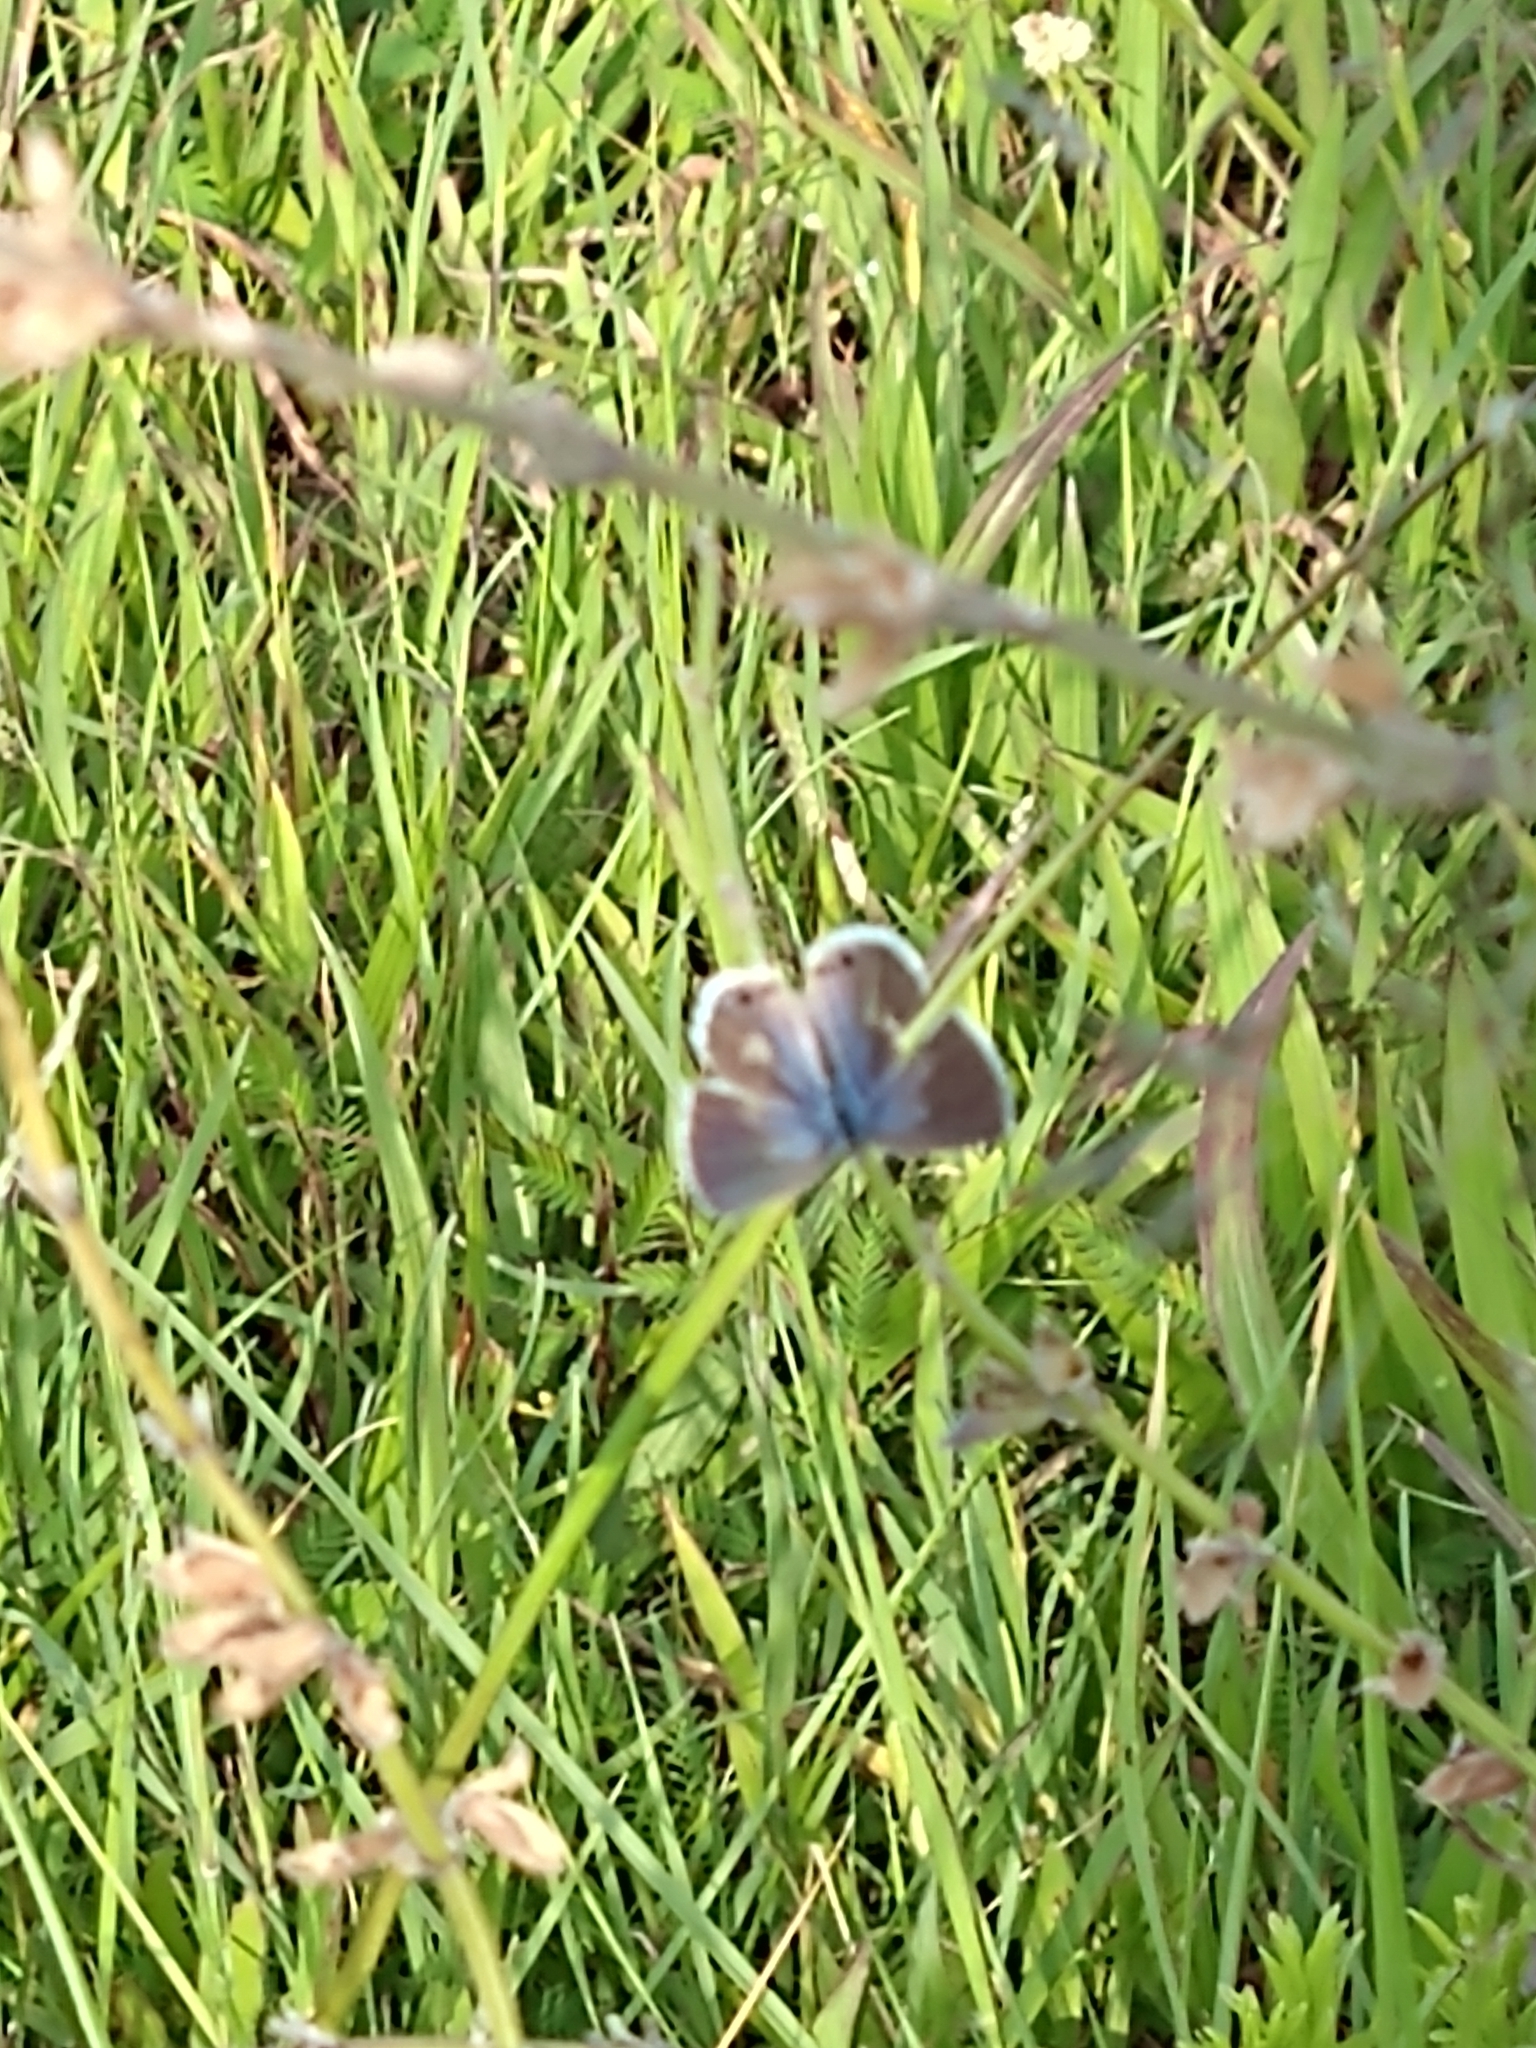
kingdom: Animalia
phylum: Arthropoda
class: Insecta
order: Lepidoptera
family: Lycaenidae
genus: Echinargus
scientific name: Echinargus isola
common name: Reakirt's blue
